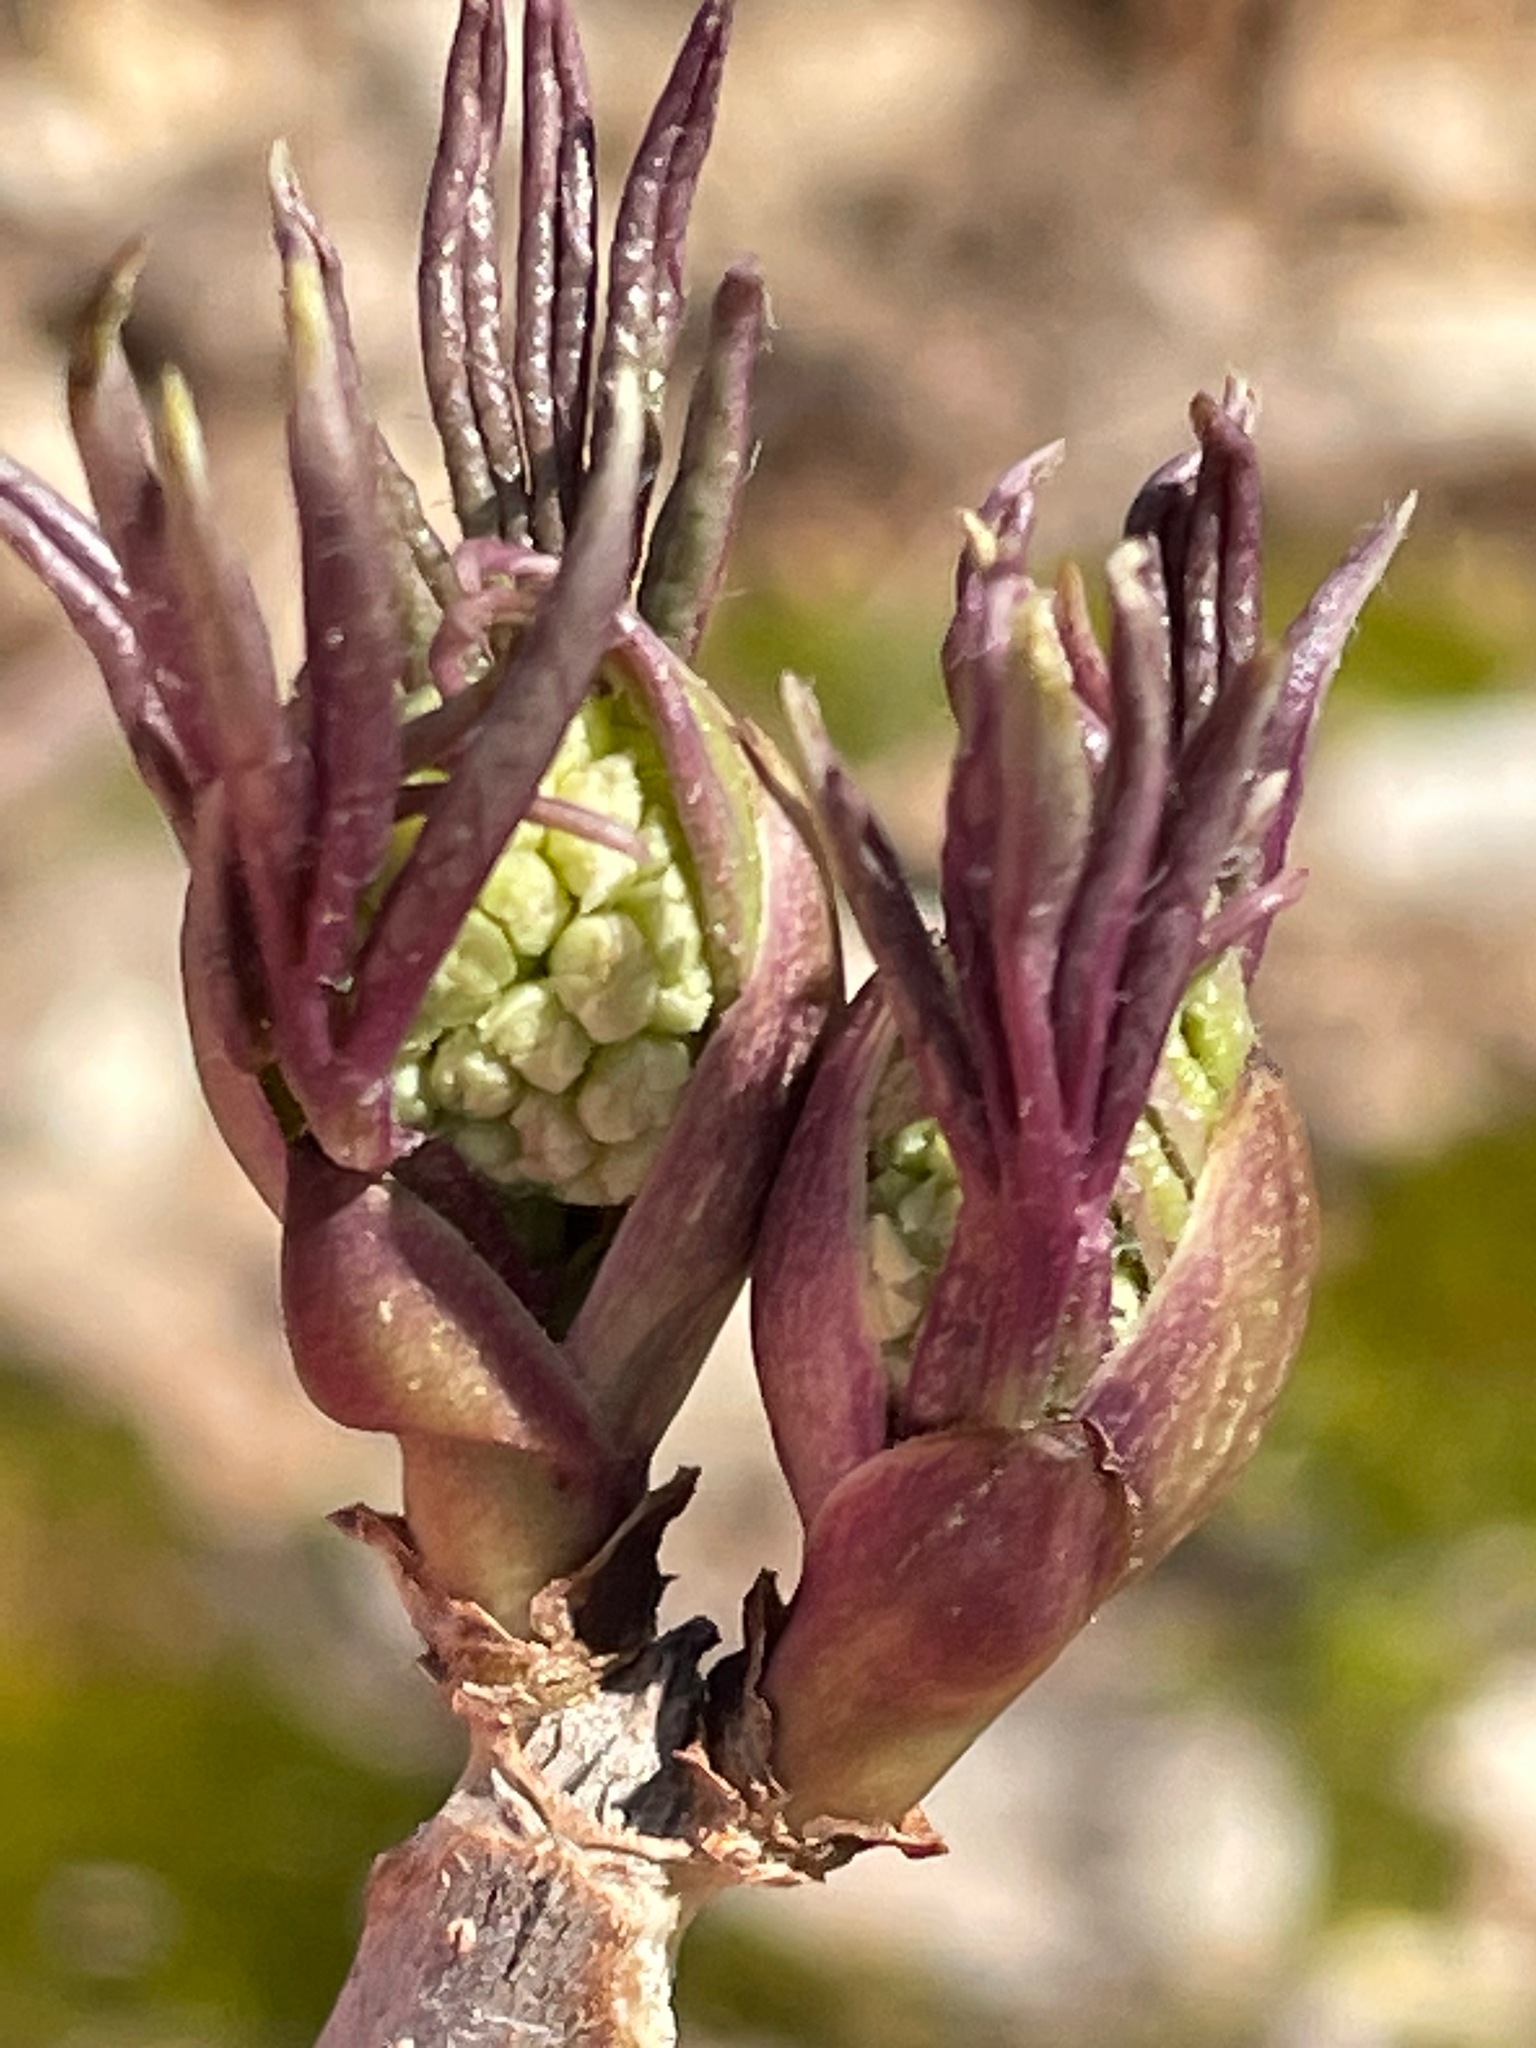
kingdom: Plantae
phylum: Tracheophyta
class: Magnoliopsida
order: Dipsacales
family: Viburnaceae
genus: Sambucus
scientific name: Sambucus racemosa
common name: Red-berried elder
